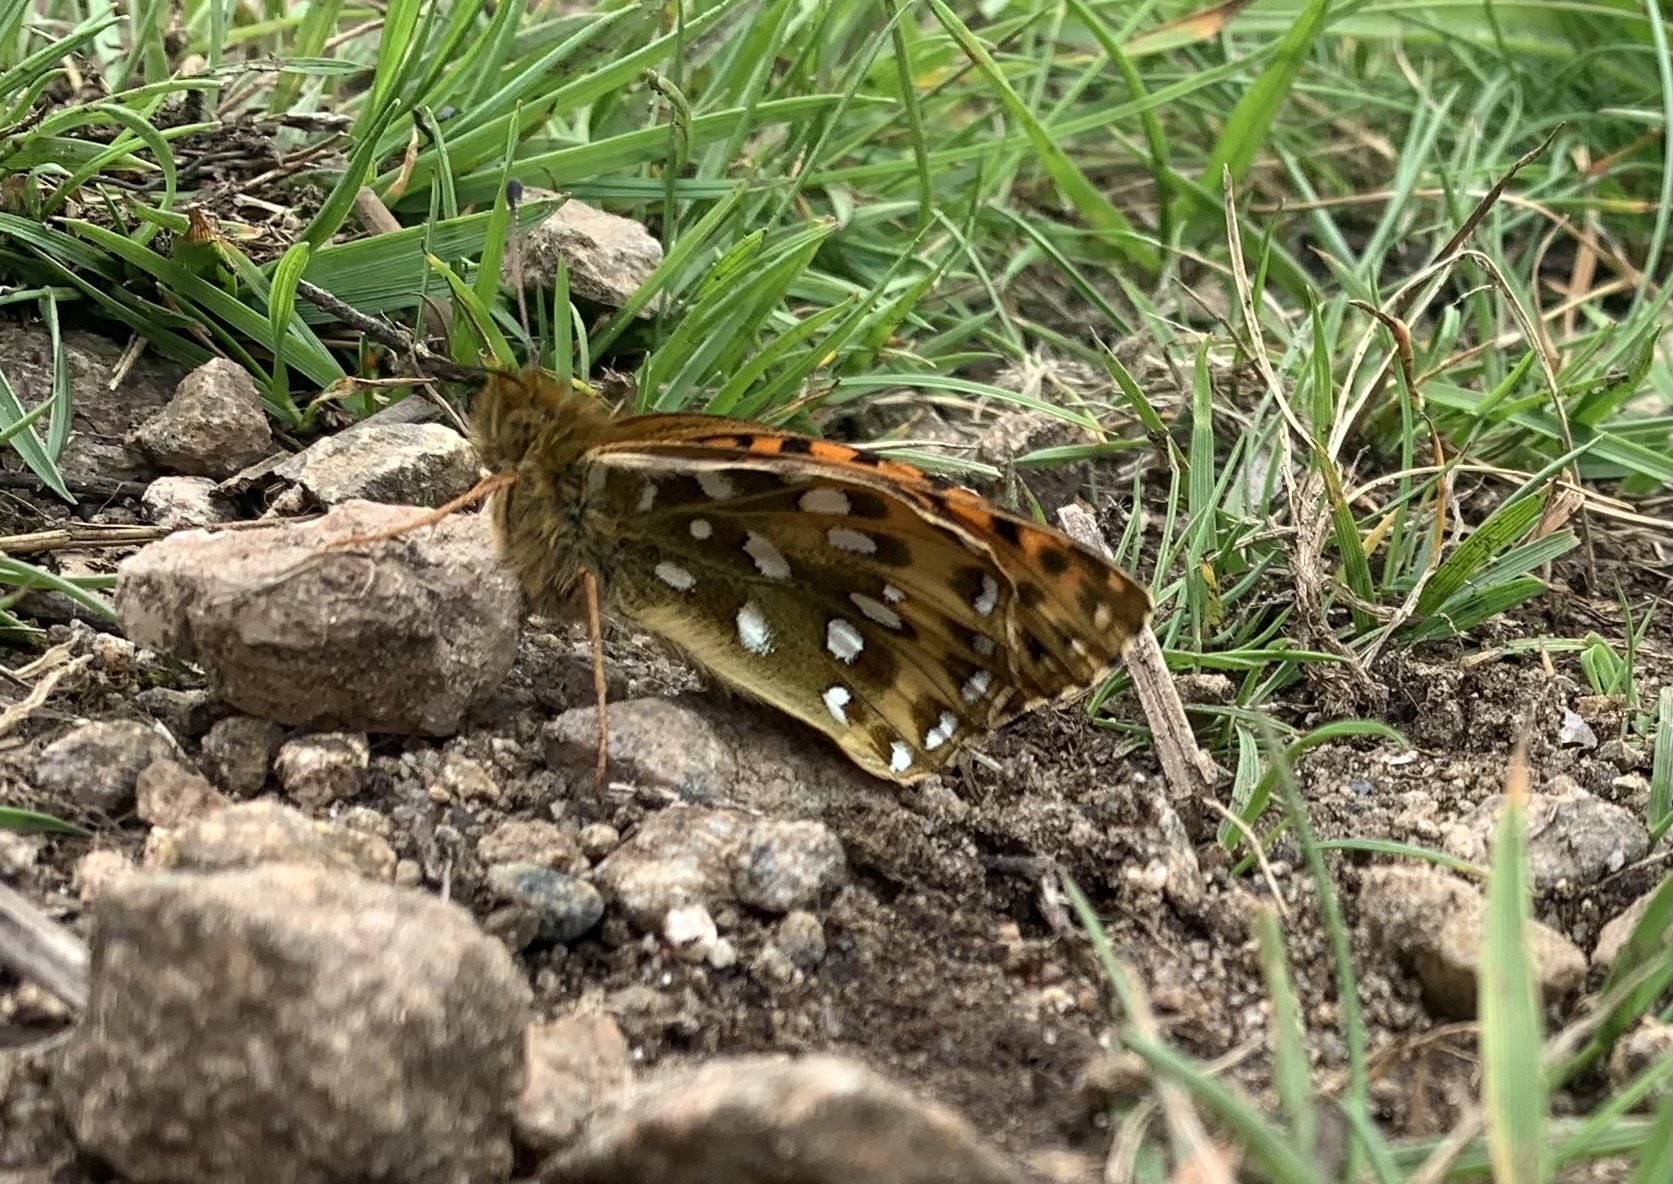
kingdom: Animalia
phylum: Arthropoda
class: Insecta
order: Lepidoptera
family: Nymphalidae
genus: Speyeria
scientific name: Speyeria aglaja
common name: Dark green fritillary
